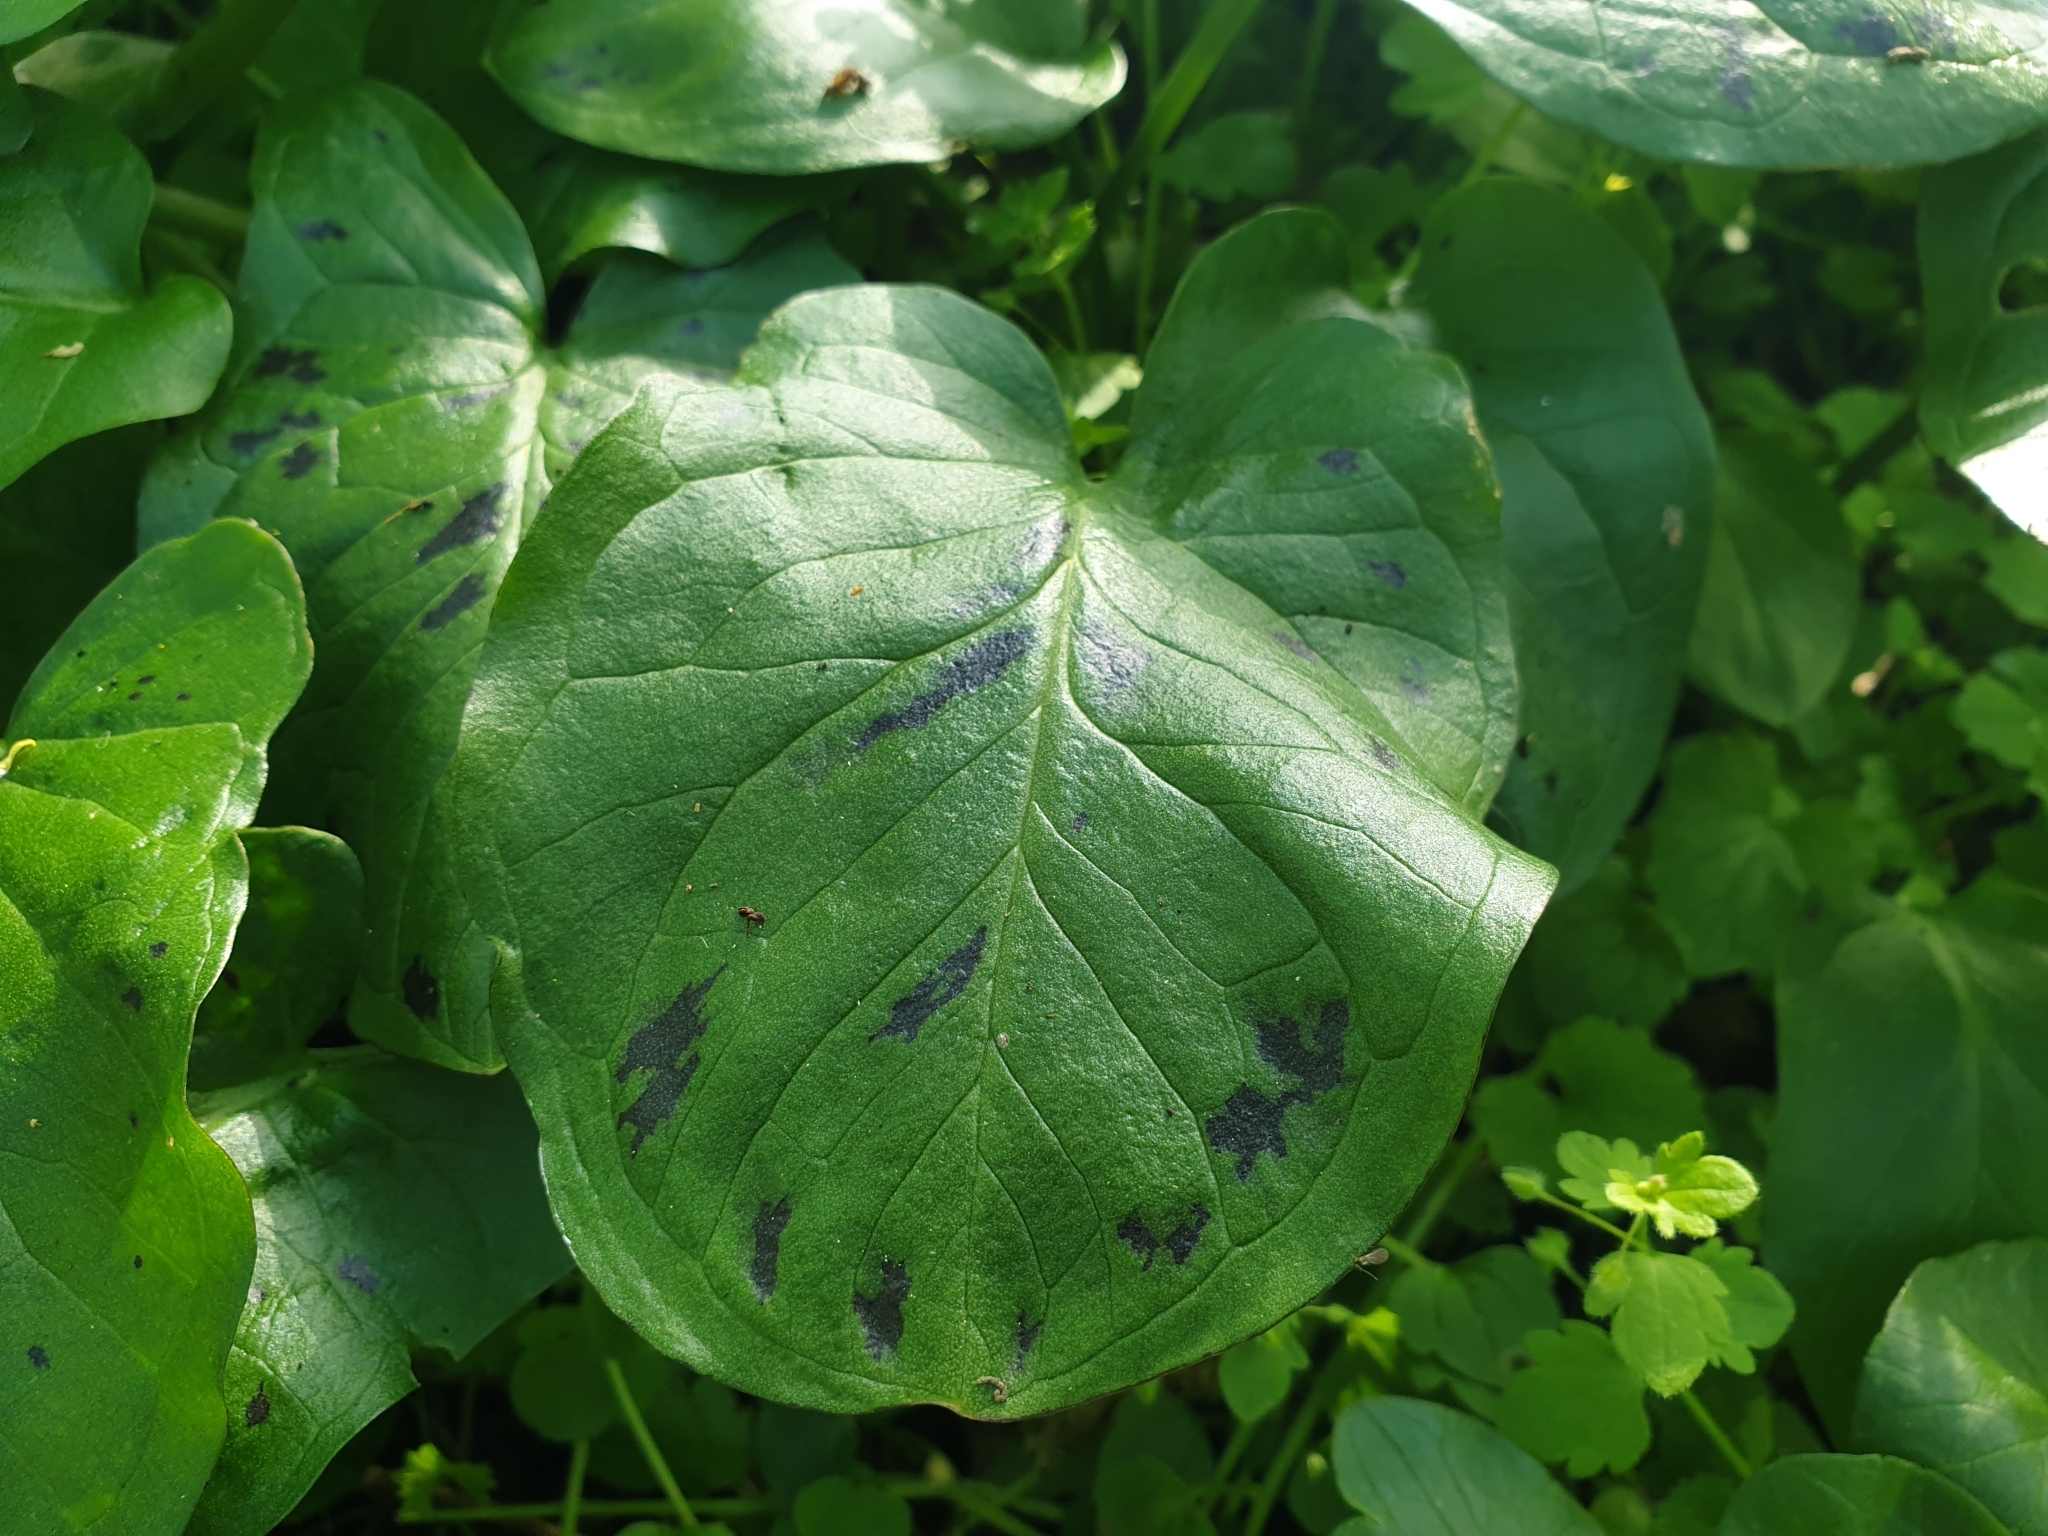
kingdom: Plantae
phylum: Tracheophyta
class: Liliopsida
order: Alismatales
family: Araceae
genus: Arum
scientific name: Arum maculatum
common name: Lords-and-ladies
